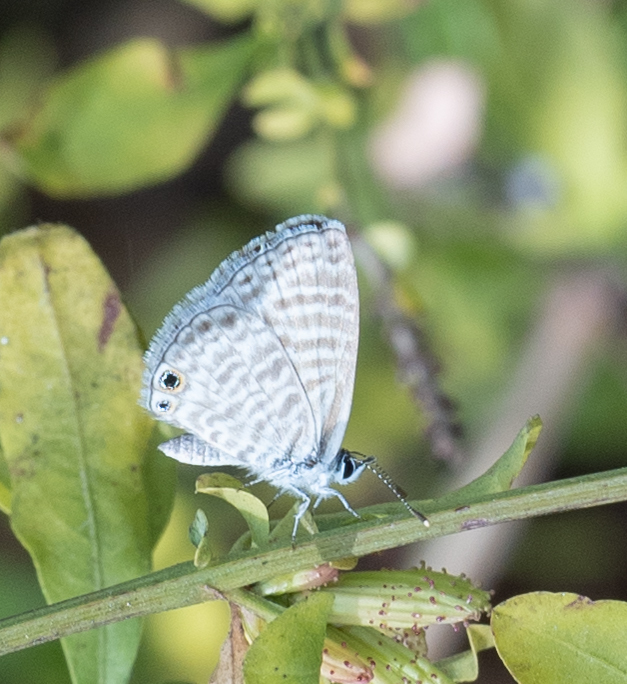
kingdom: Animalia
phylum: Arthropoda
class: Insecta
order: Lepidoptera
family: Lycaenidae
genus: Leptotes
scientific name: Leptotes marina
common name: Marine blue
